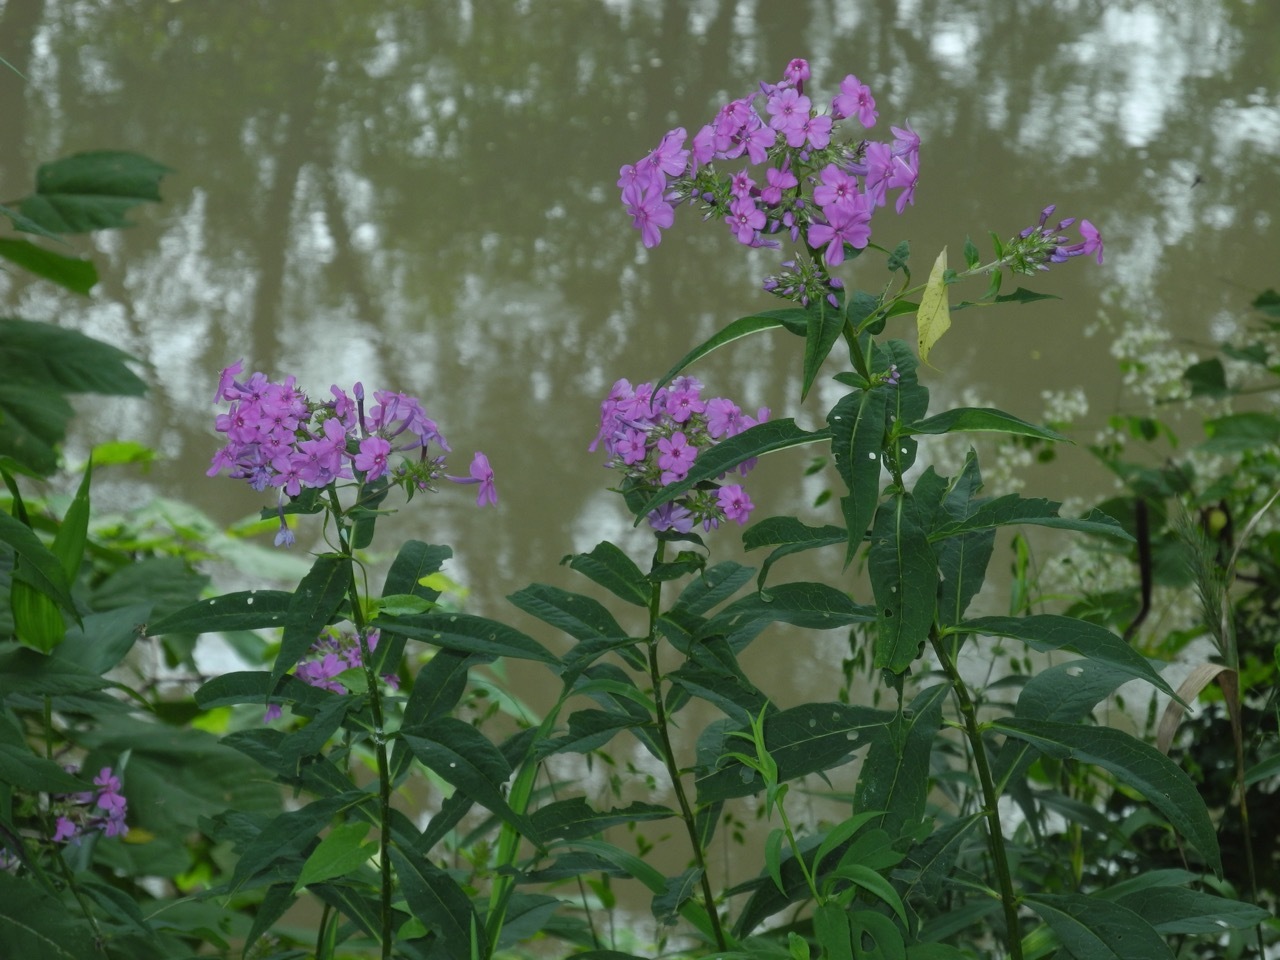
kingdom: Plantae
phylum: Tracheophyta
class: Magnoliopsida
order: Ericales
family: Polemoniaceae
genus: Phlox
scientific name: Phlox paniculata
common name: Fall phlox
